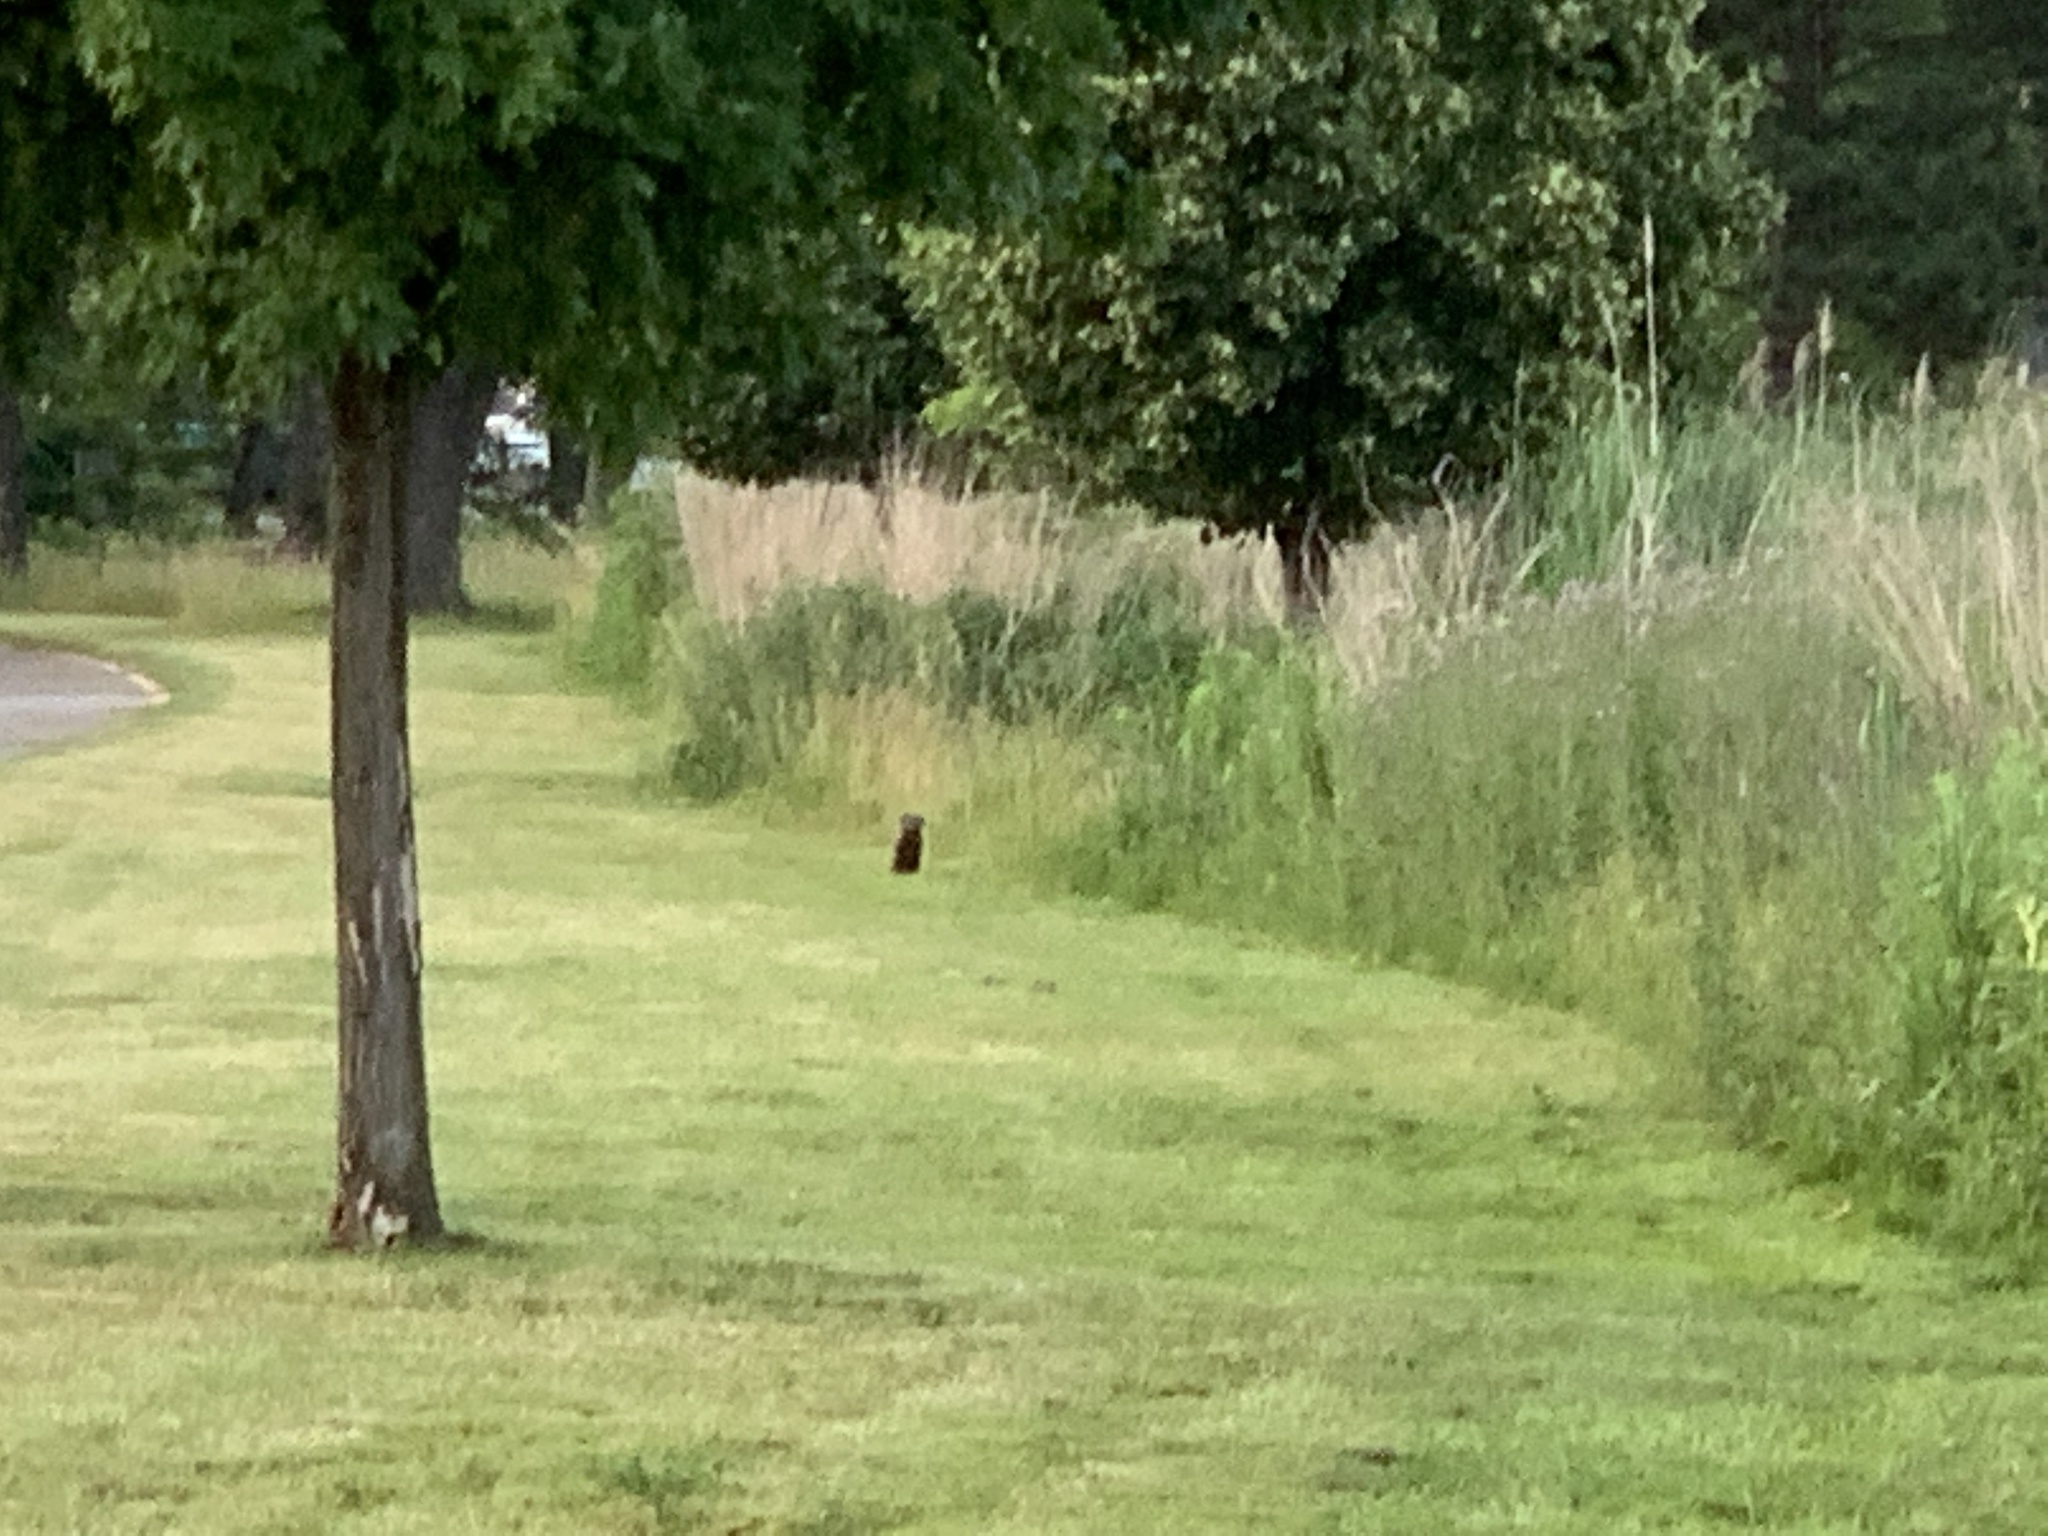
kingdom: Animalia
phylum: Chordata
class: Mammalia
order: Rodentia
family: Sciuridae
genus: Marmota
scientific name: Marmota monax
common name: Groundhog
